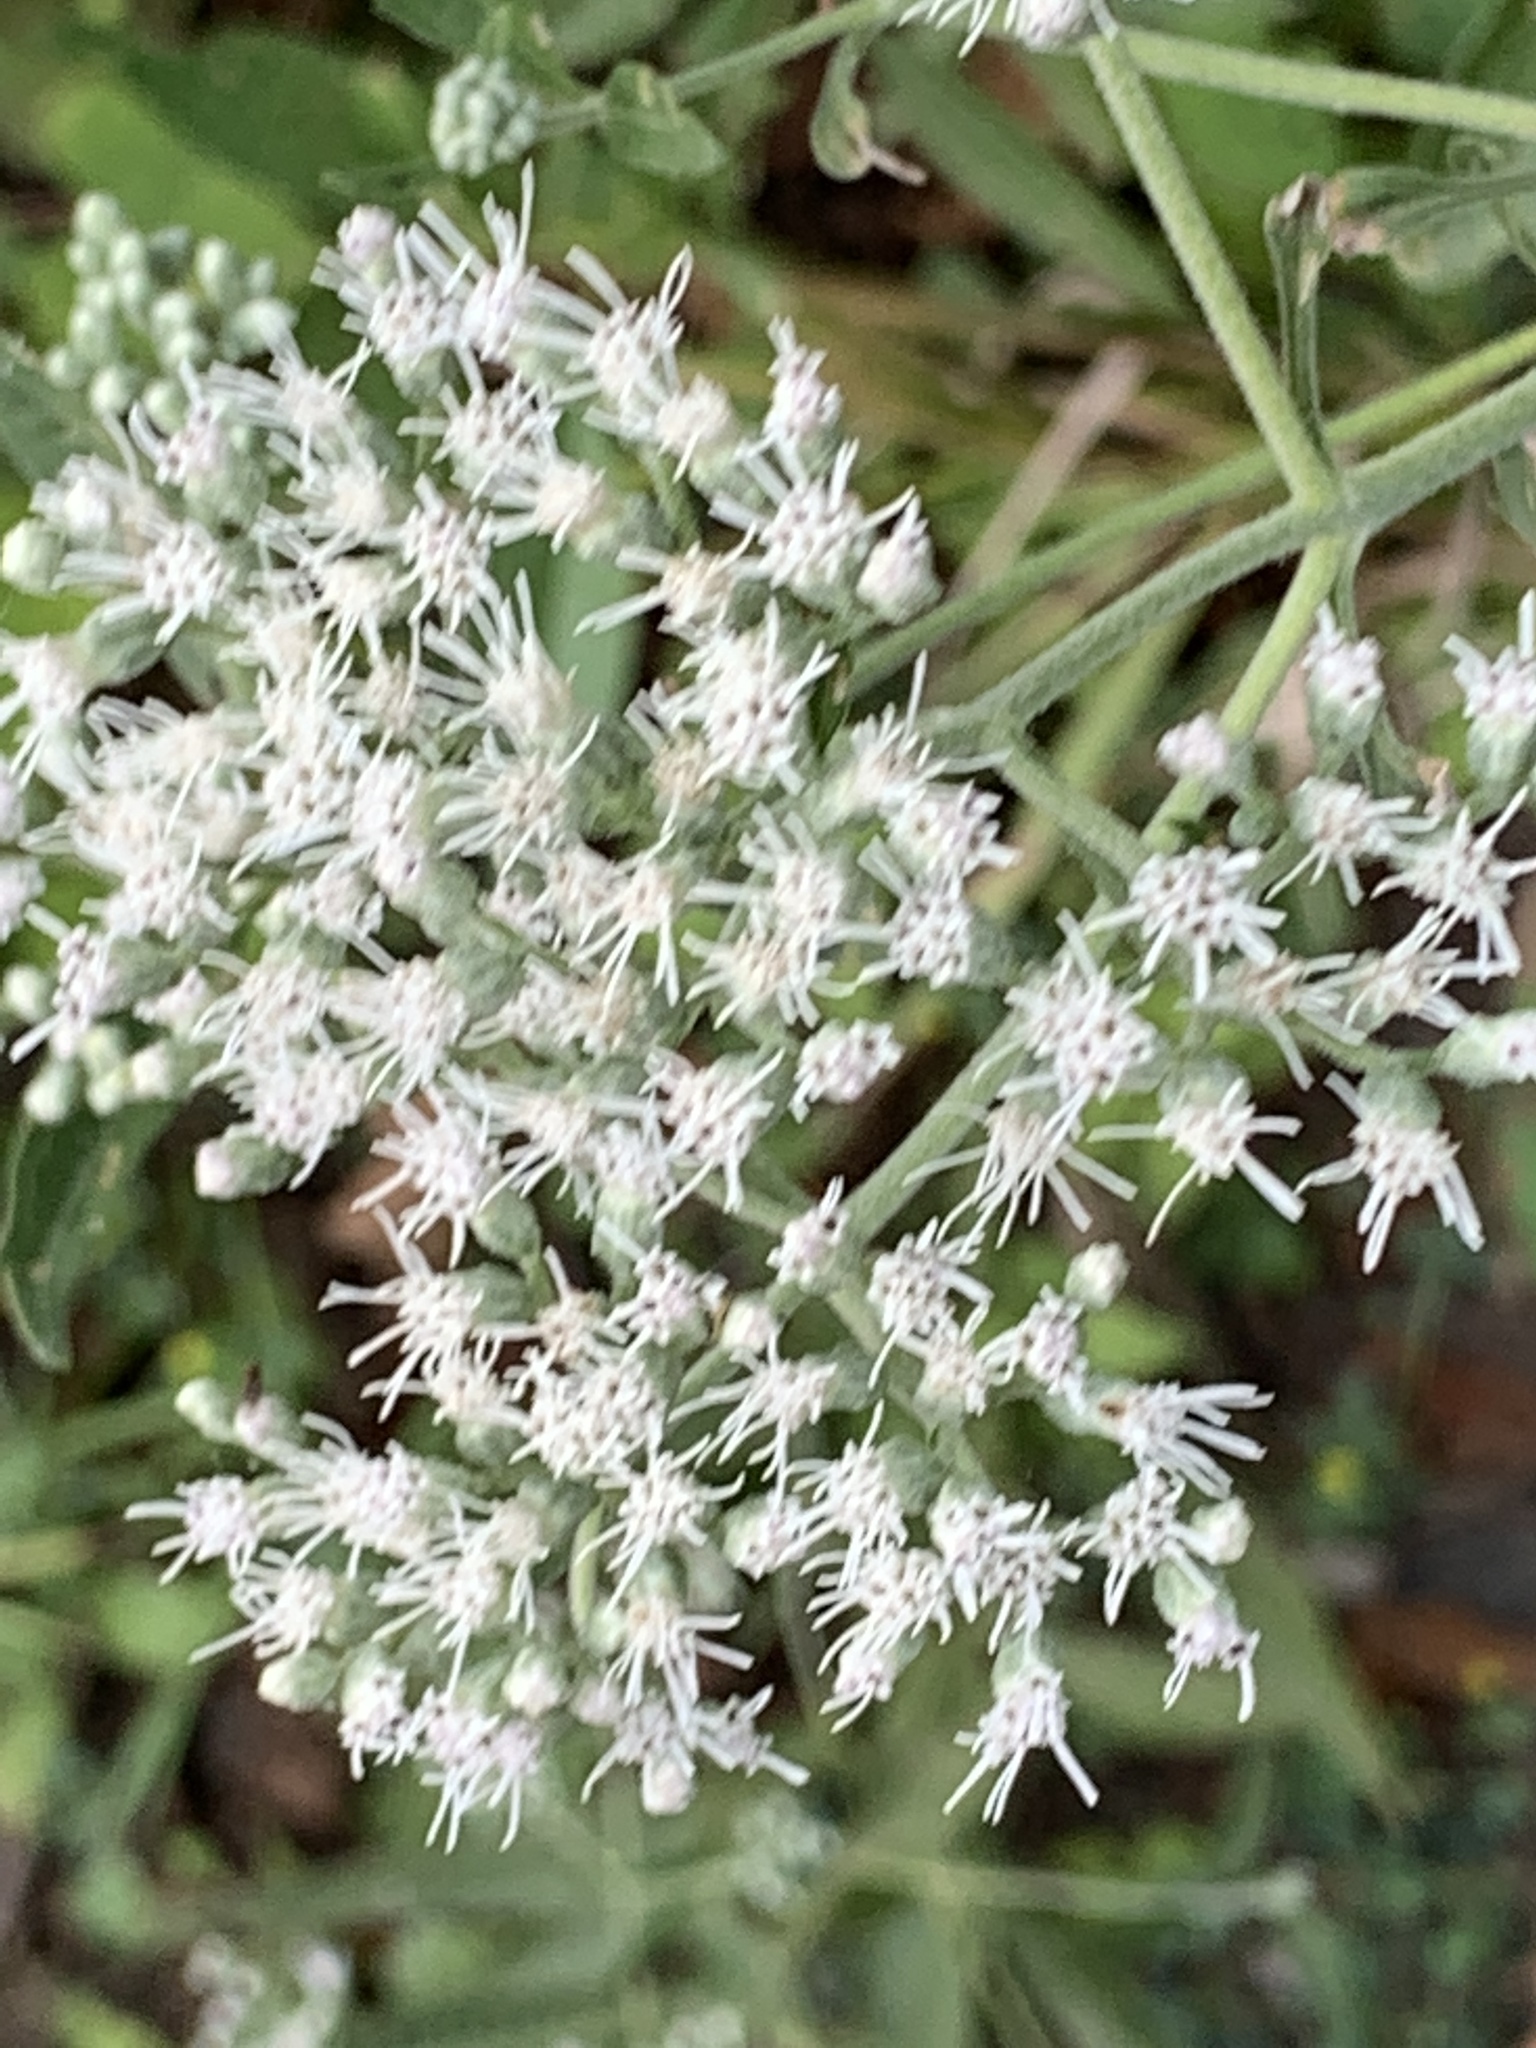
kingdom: Plantae
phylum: Tracheophyta
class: Magnoliopsida
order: Asterales
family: Asteraceae
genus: Eupatorium
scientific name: Eupatorium serotinum
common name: Late boneset
